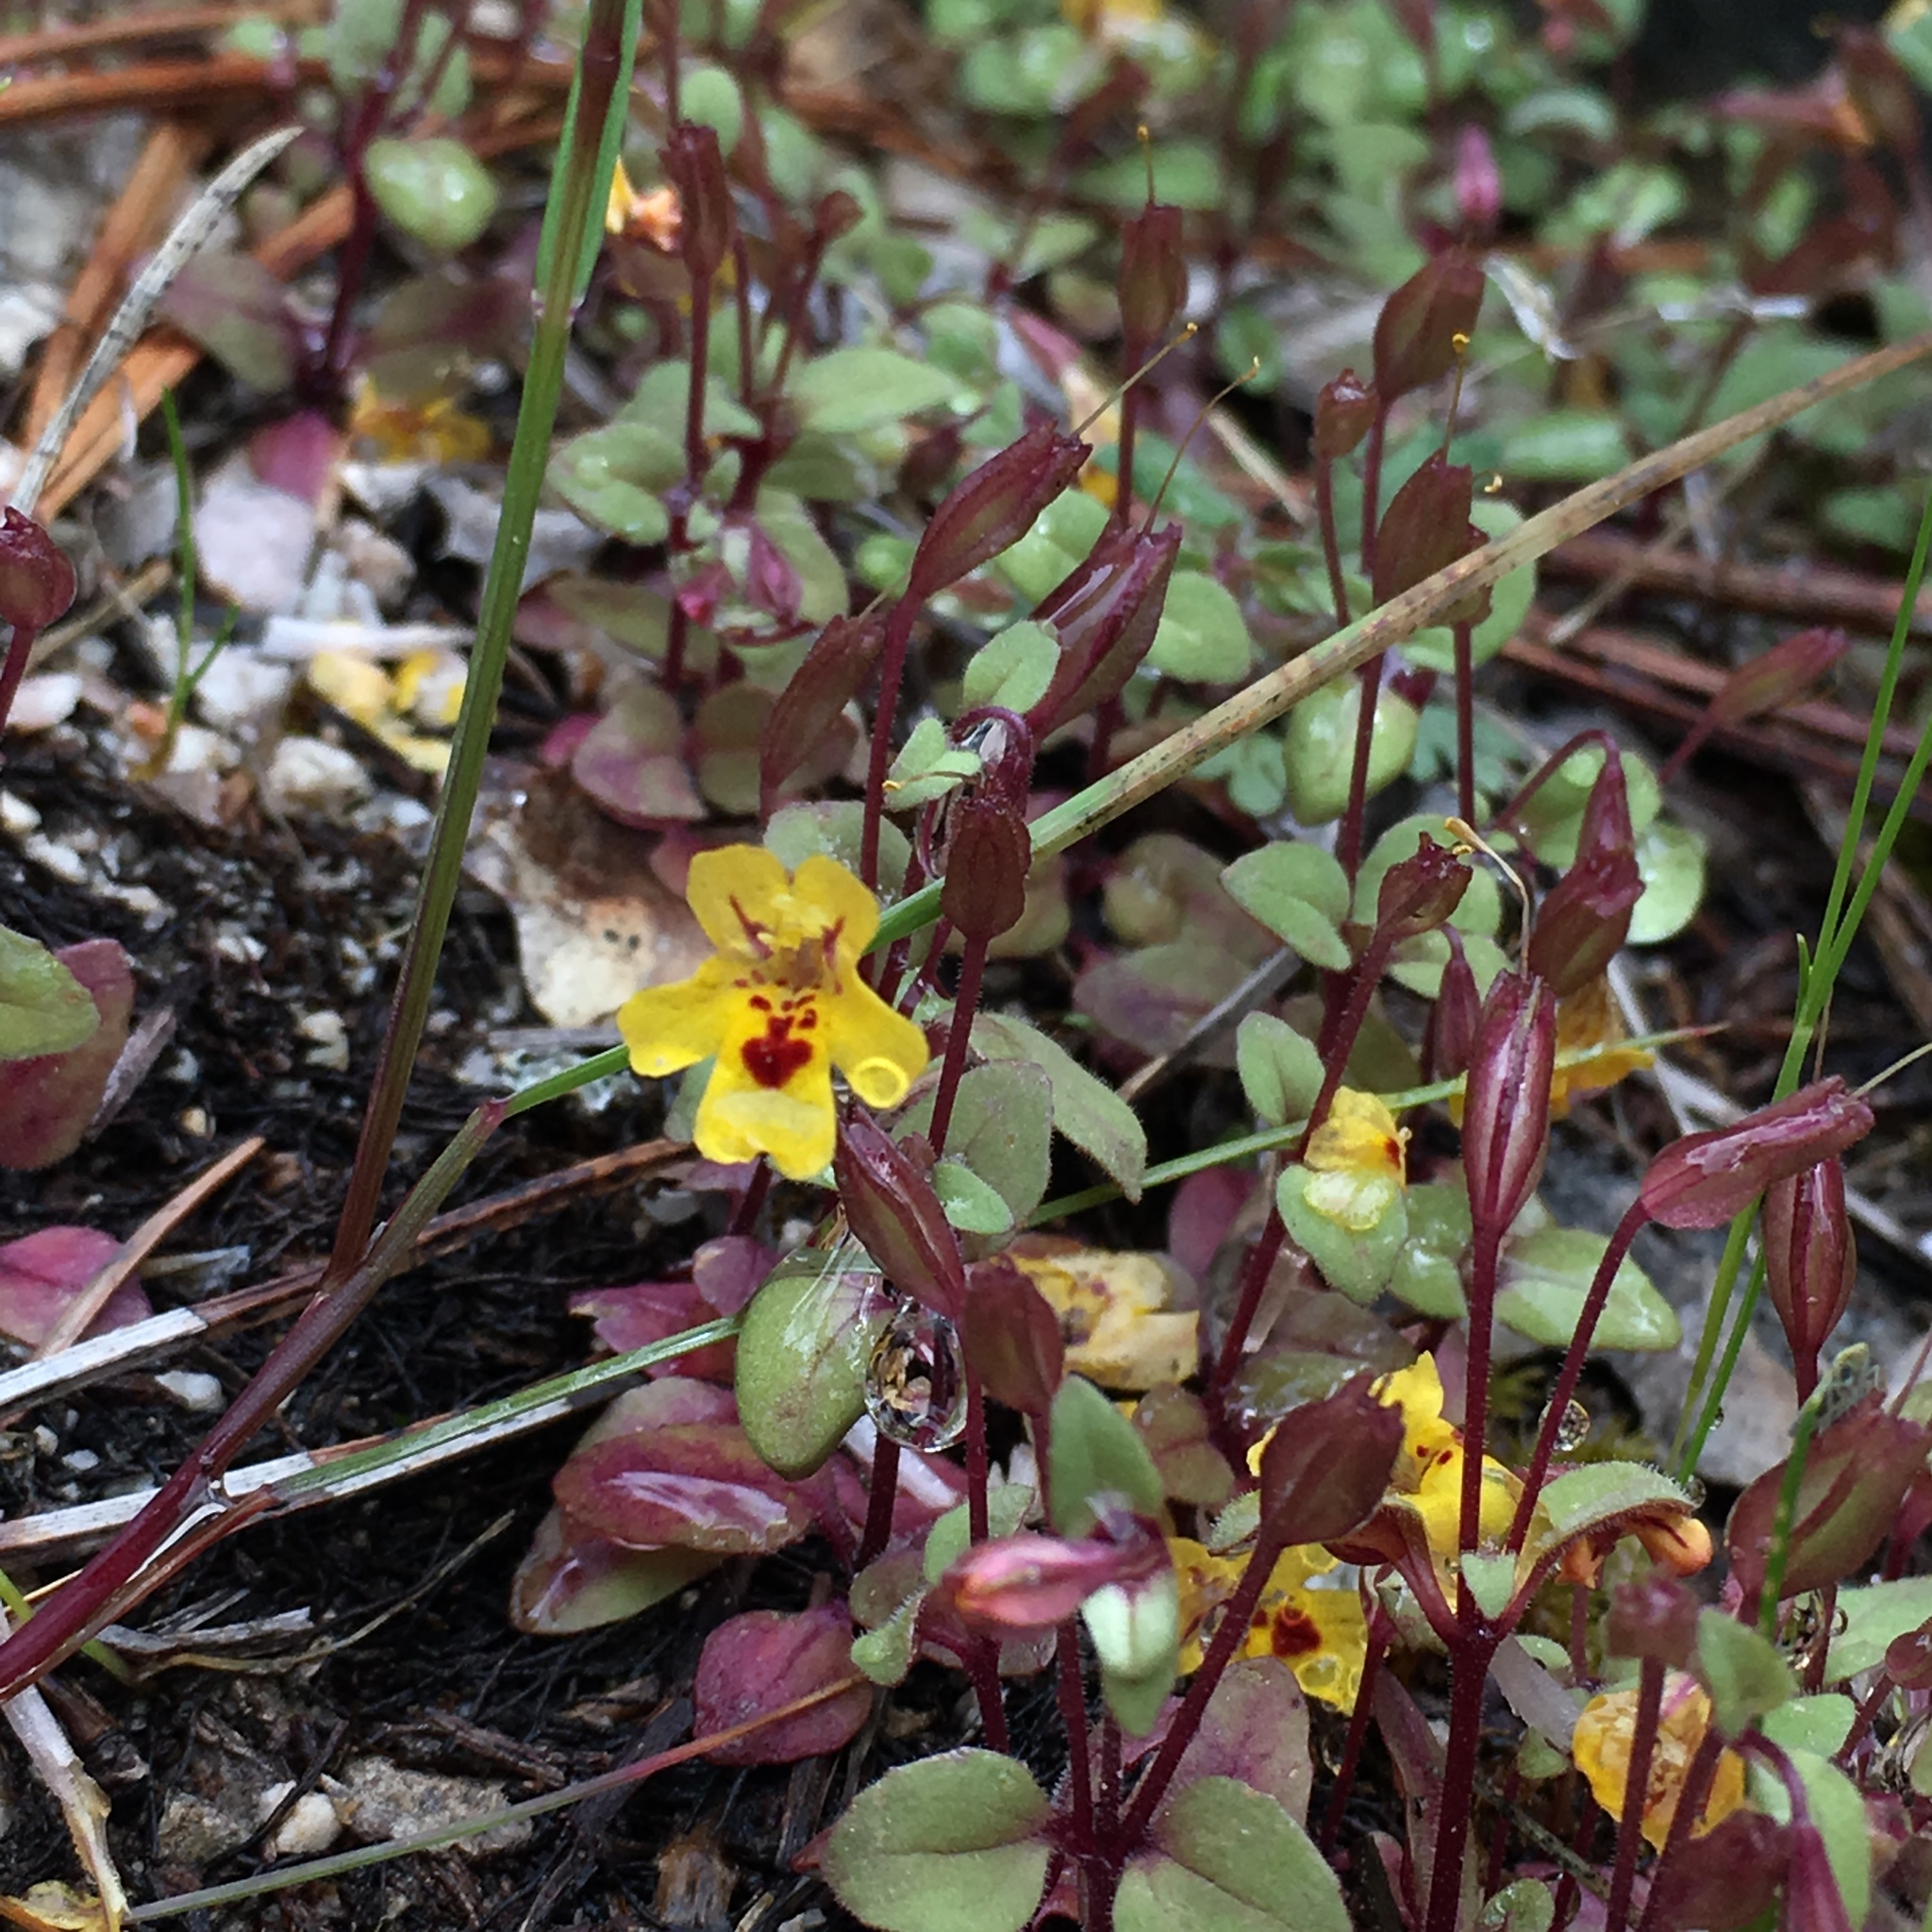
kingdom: Plantae
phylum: Tracheophyta
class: Magnoliopsida
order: Lamiales
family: Phrymaceae
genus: Erythranthe
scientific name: Erythranthe alsinoides
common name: Chickweed monkeyflower
